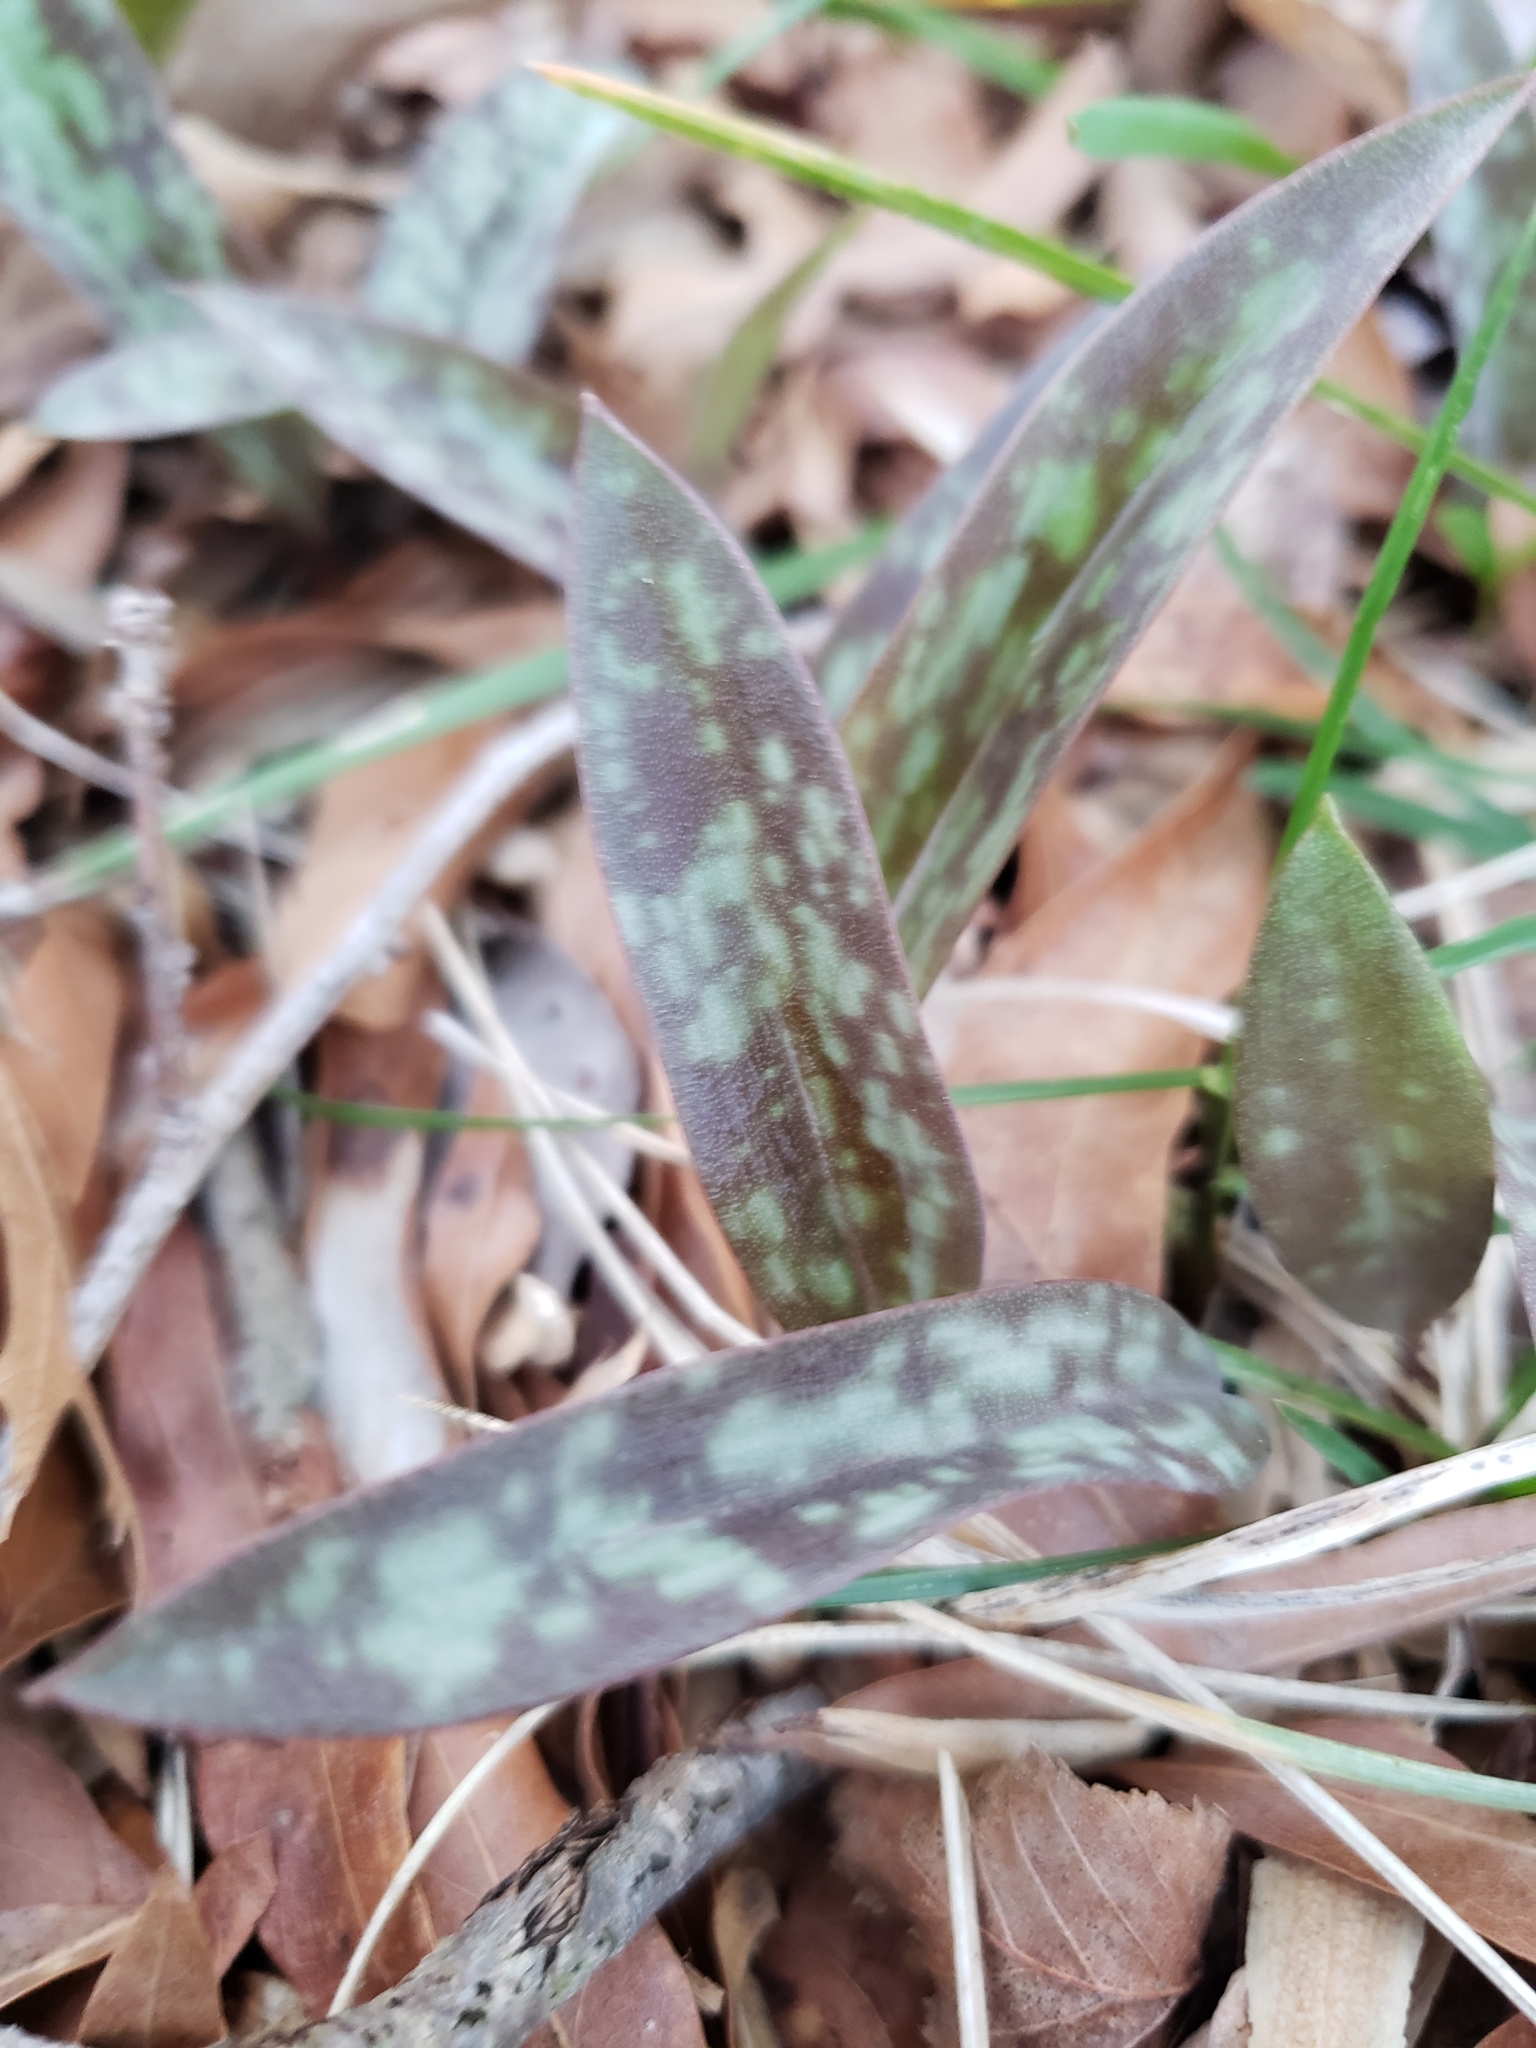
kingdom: Plantae
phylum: Tracheophyta
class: Liliopsida
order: Liliales
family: Liliaceae
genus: Erythronium
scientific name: Erythronium americanum
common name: Yellow adder's-tongue
